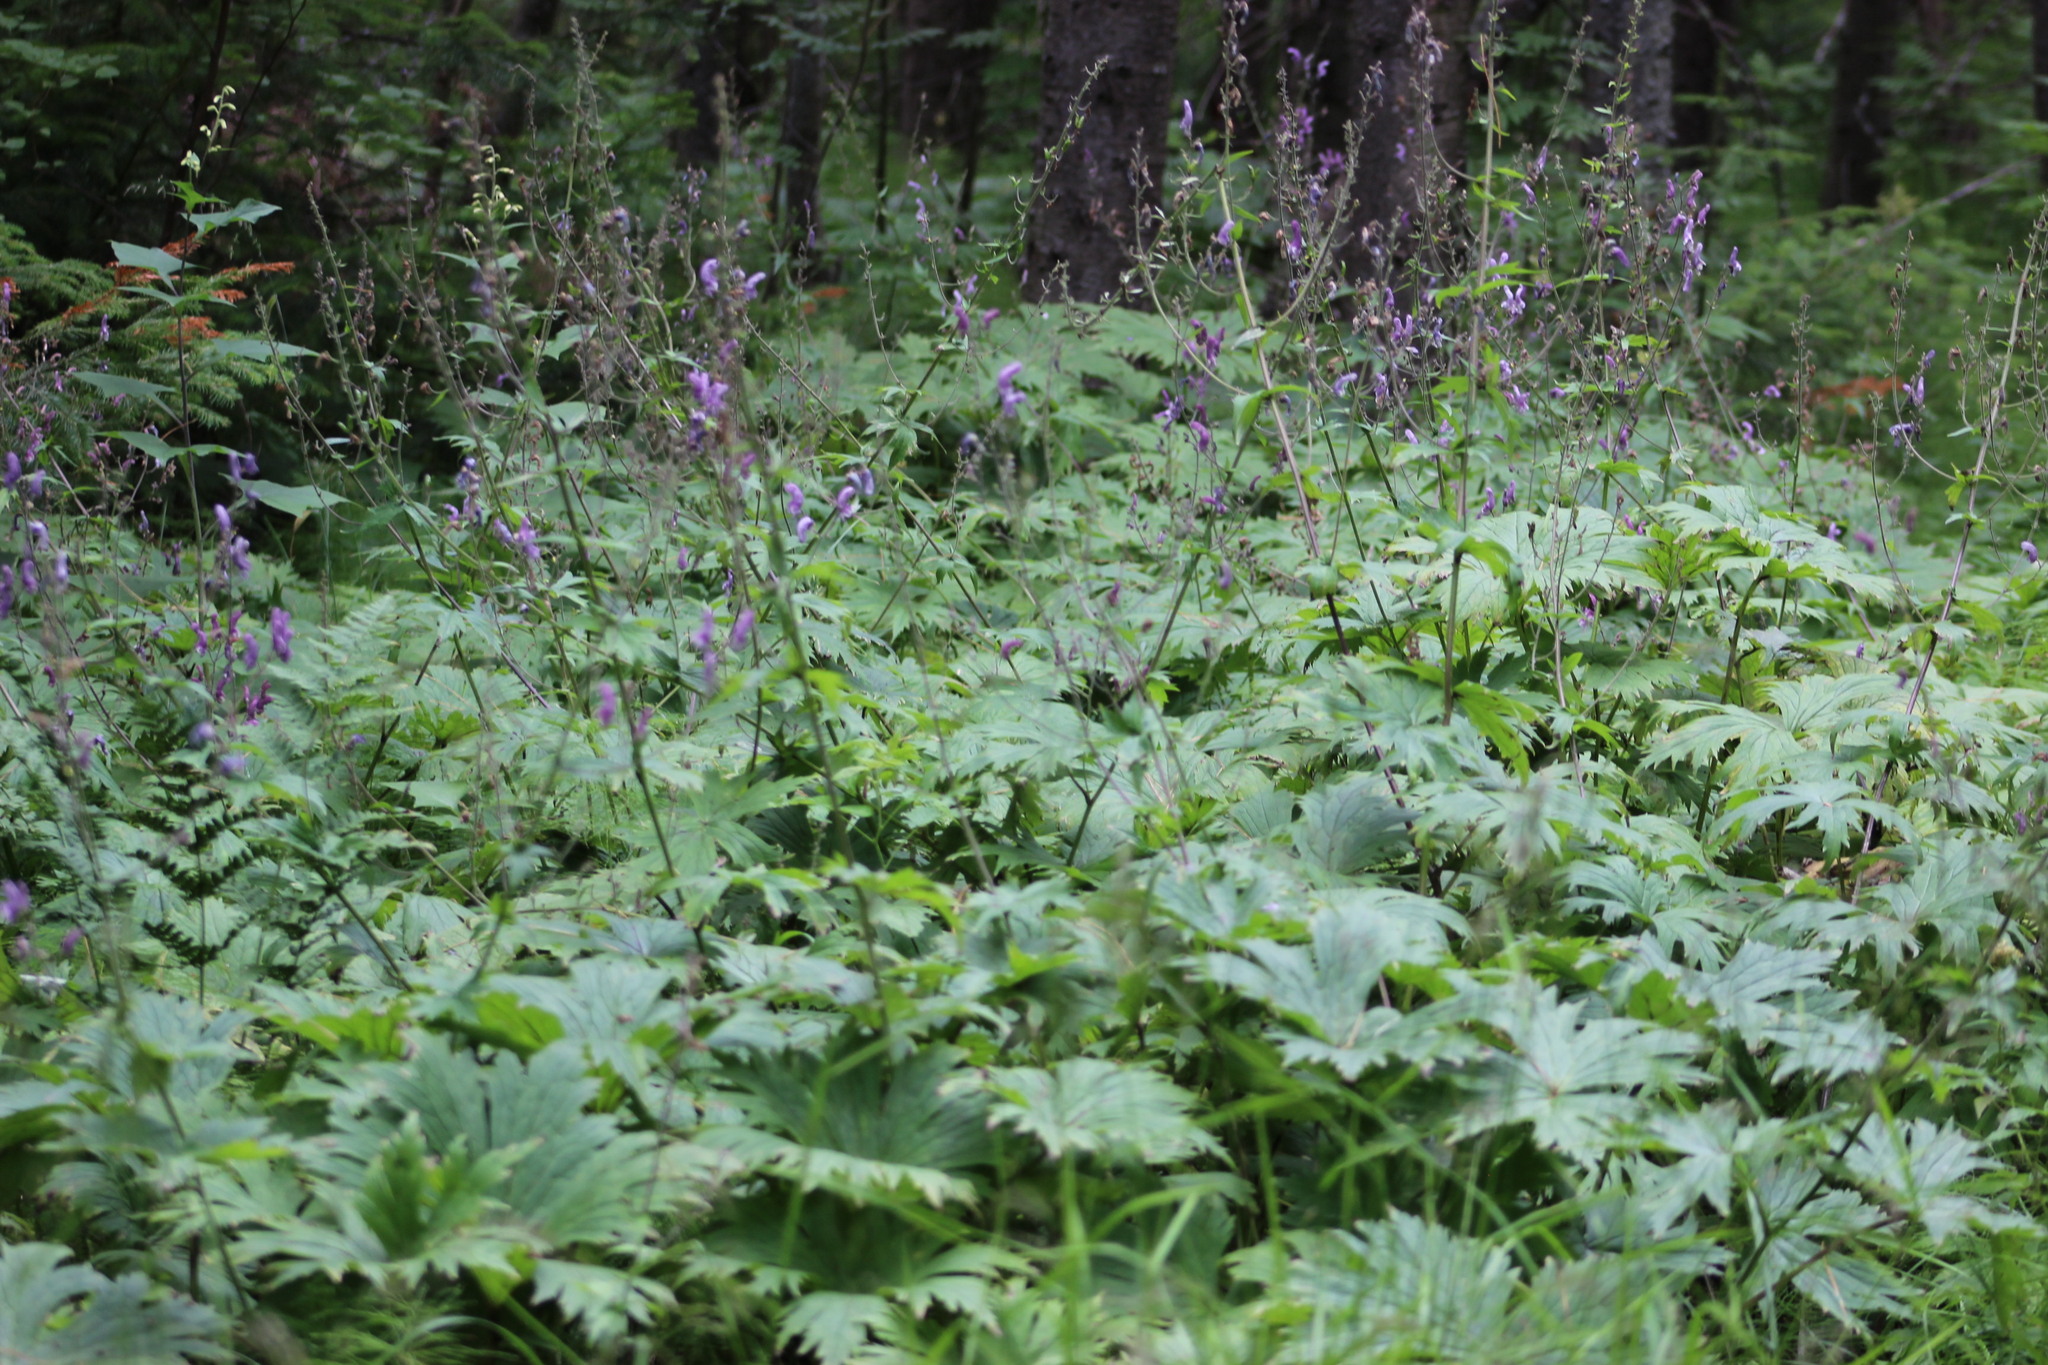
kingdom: Plantae
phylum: Tracheophyta
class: Magnoliopsida
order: Ranunculales
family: Ranunculaceae
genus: Aconitum
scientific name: Aconitum septentrionale
